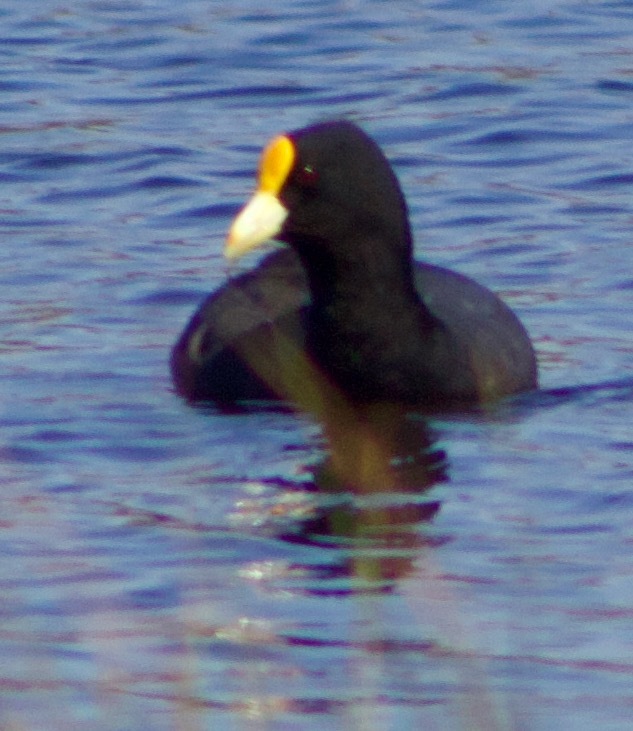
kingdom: Animalia
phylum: Chordata
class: Aves
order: Gruiformes
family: Rallidae
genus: Fulica
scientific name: Fulica leucoptera
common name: White-winged coot
